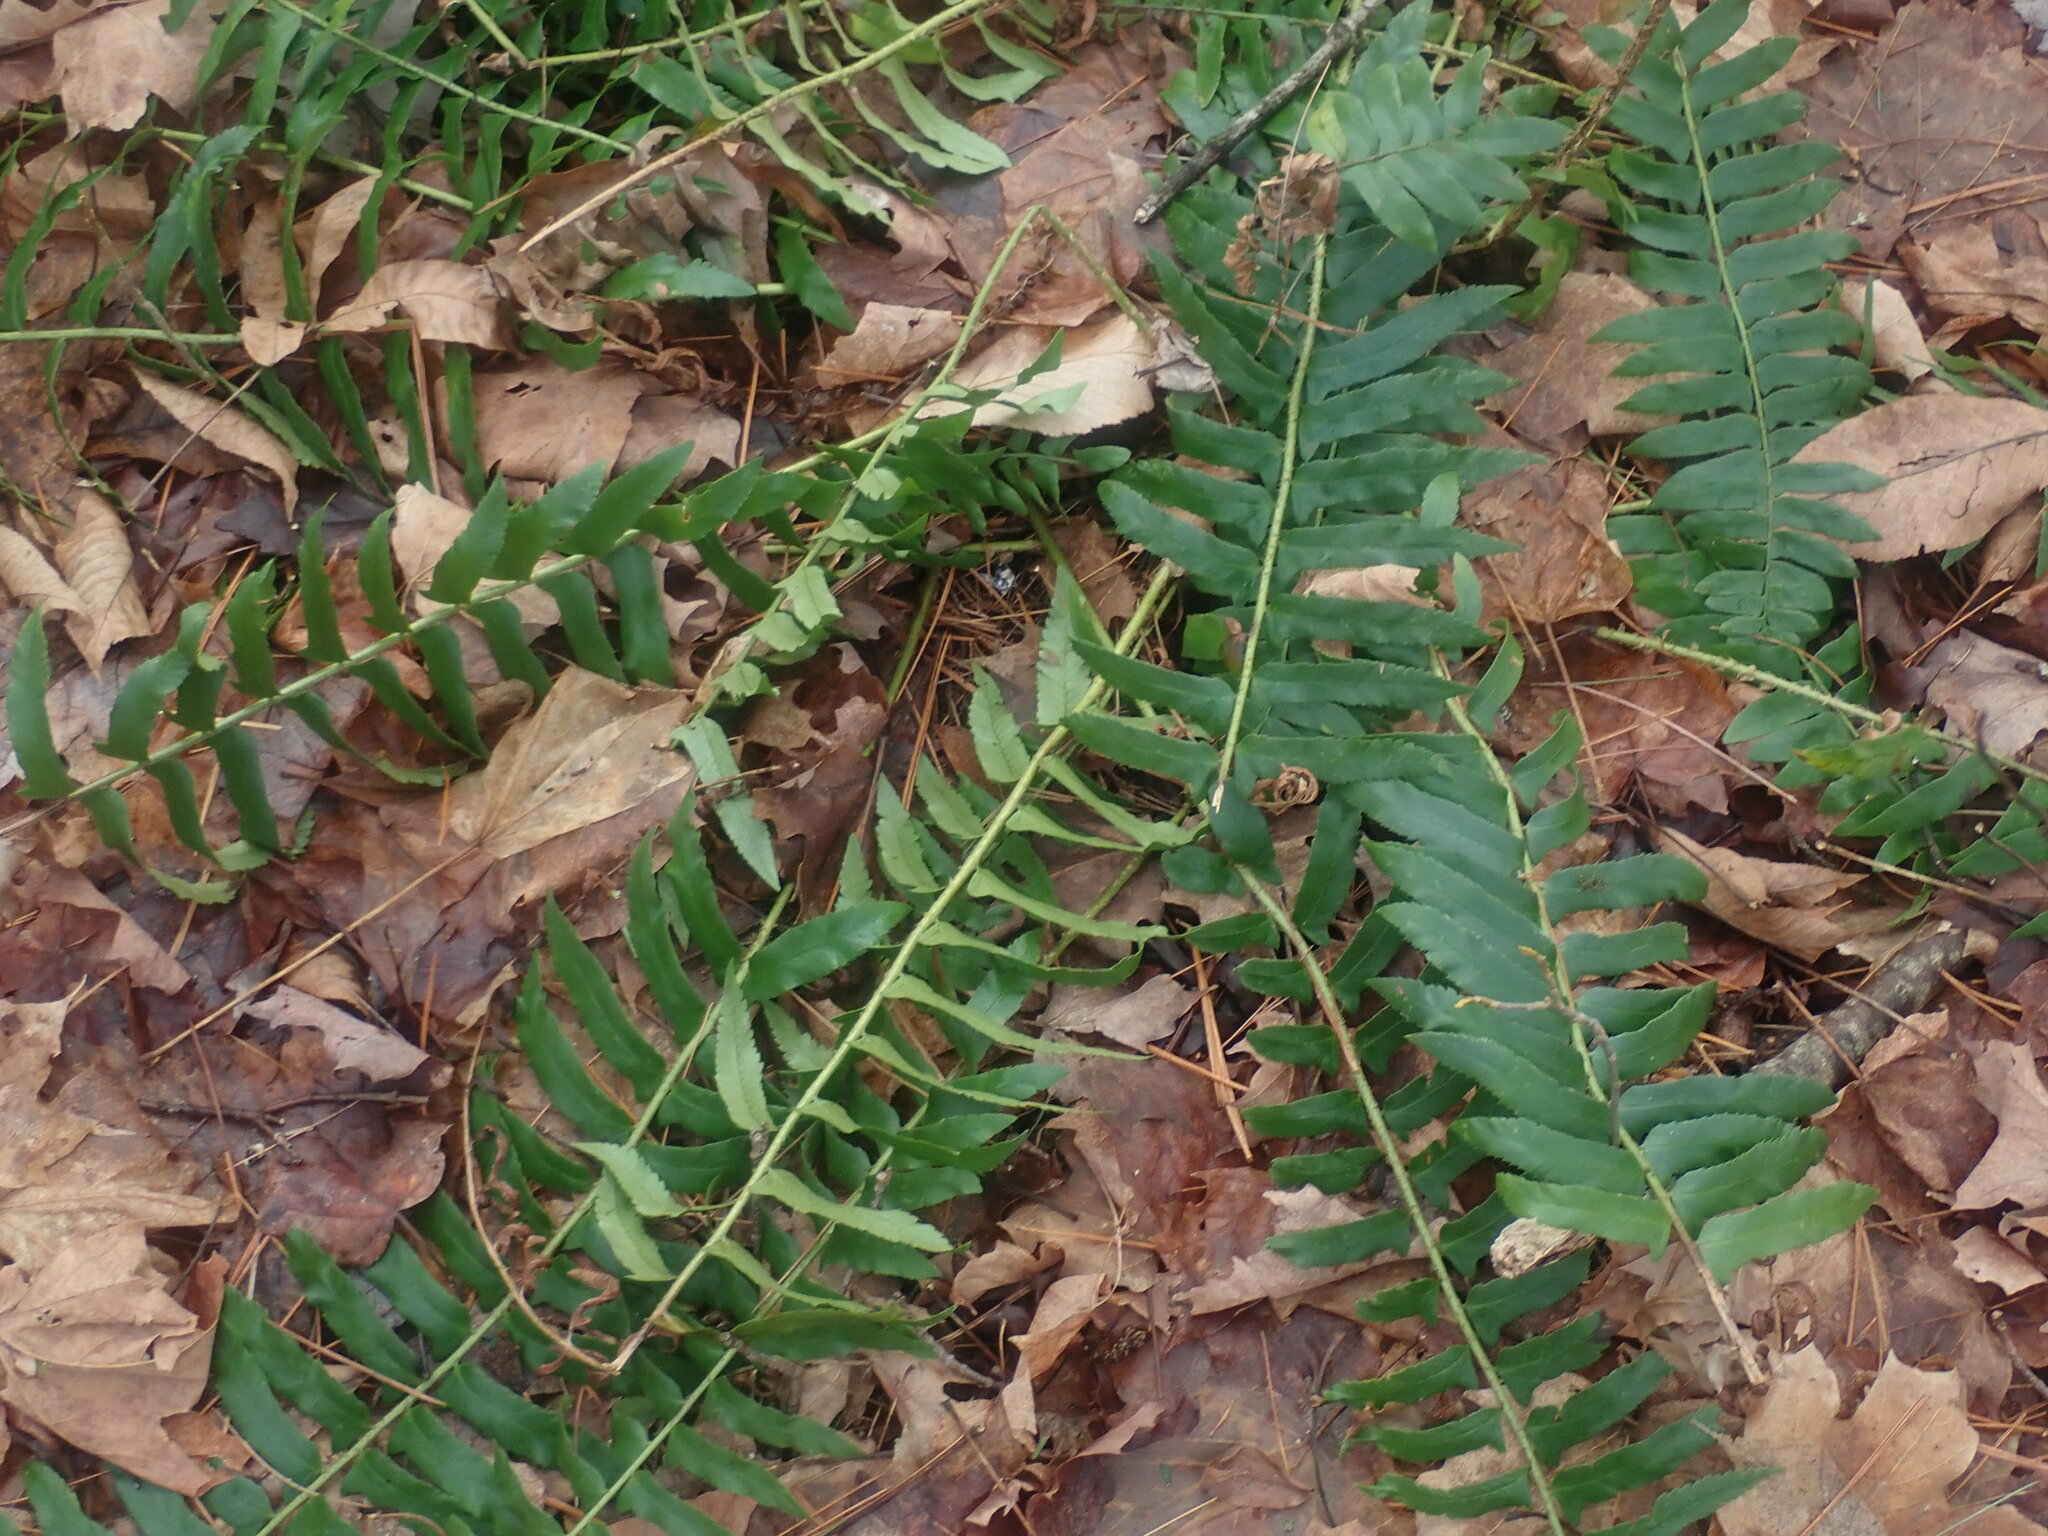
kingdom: Plantae
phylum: Tracheophyta
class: Polypodiopsida
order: Polypodiales
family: Dryopteridaceae
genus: Polystichum
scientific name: Polystichum acrostichoides
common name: Christmas fern
